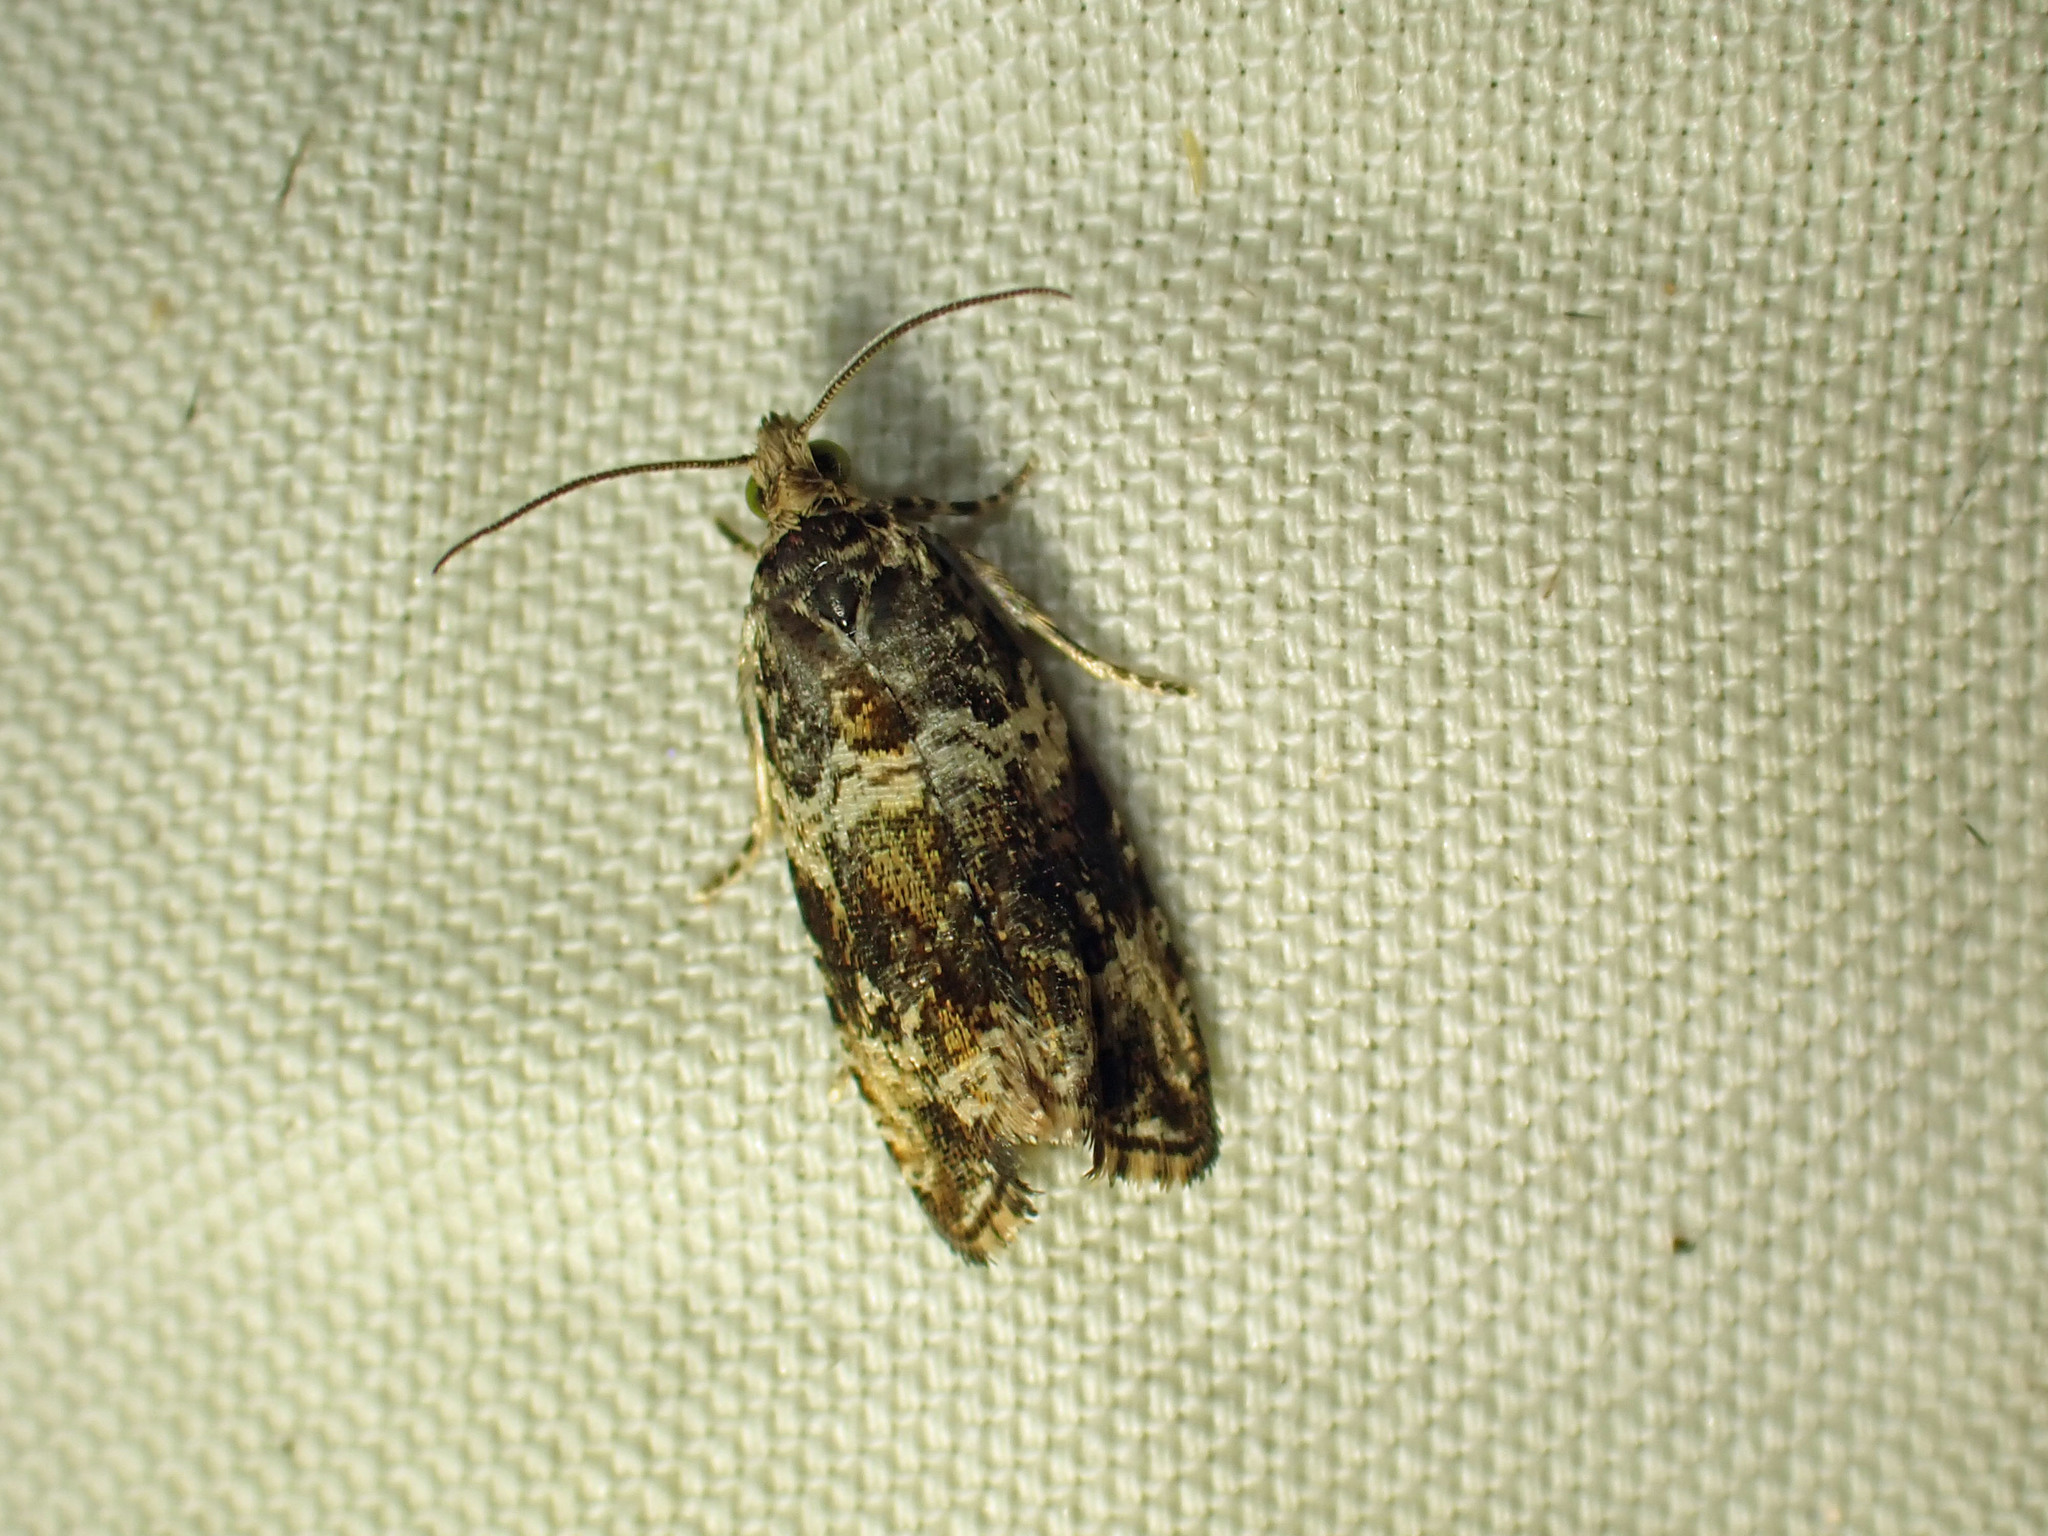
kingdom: Animalia
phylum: Arthropoda
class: Insecta
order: Lepidoptera
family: Tortricidae
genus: Celypha
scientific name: Celypha cespitana
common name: Thyme marble
